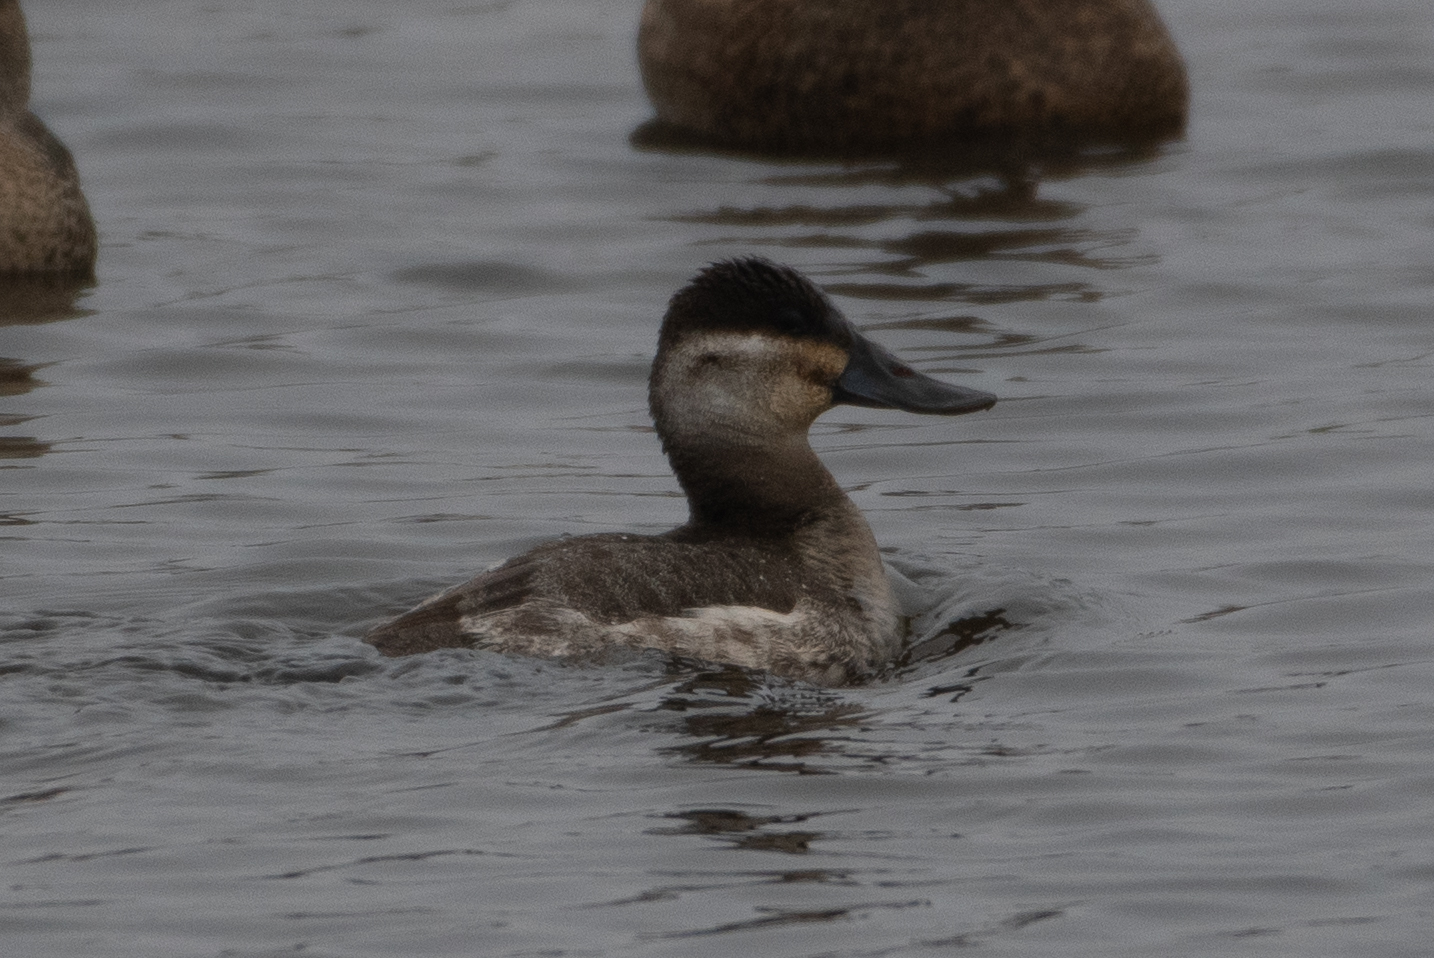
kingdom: Animalia
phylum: Chordata
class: Aves
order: Anseriformes
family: Anatidae
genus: Oxyura
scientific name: Oxyura jamaicensis
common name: Ruddy duck
